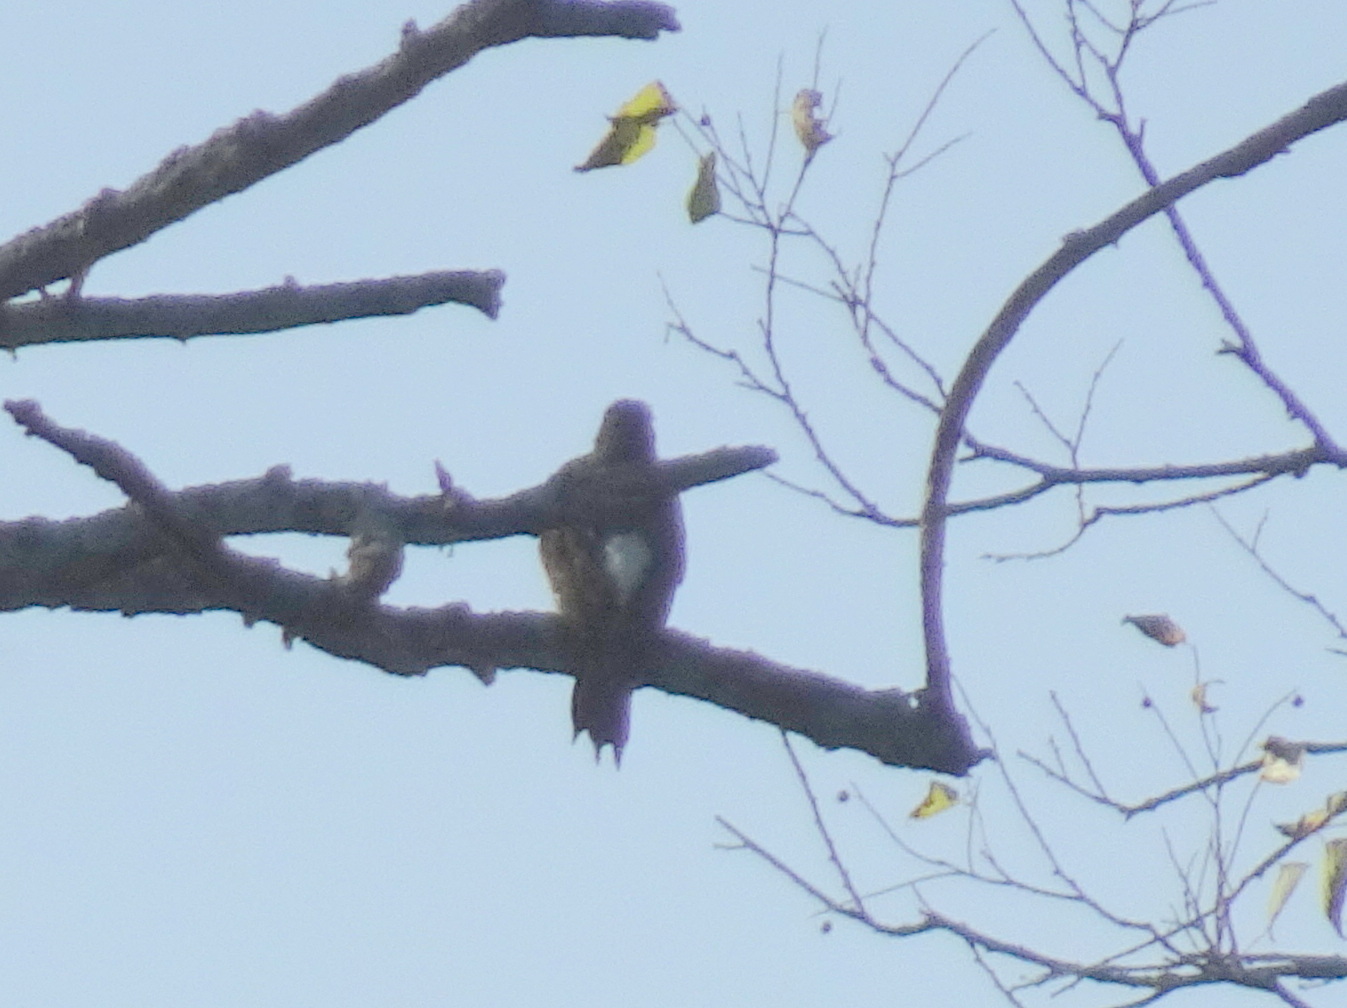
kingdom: Animalia
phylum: Chordata
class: Aves
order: Piciformes
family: Picidae
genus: Colaptes
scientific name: Colaptes auratus
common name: Northern flicker
